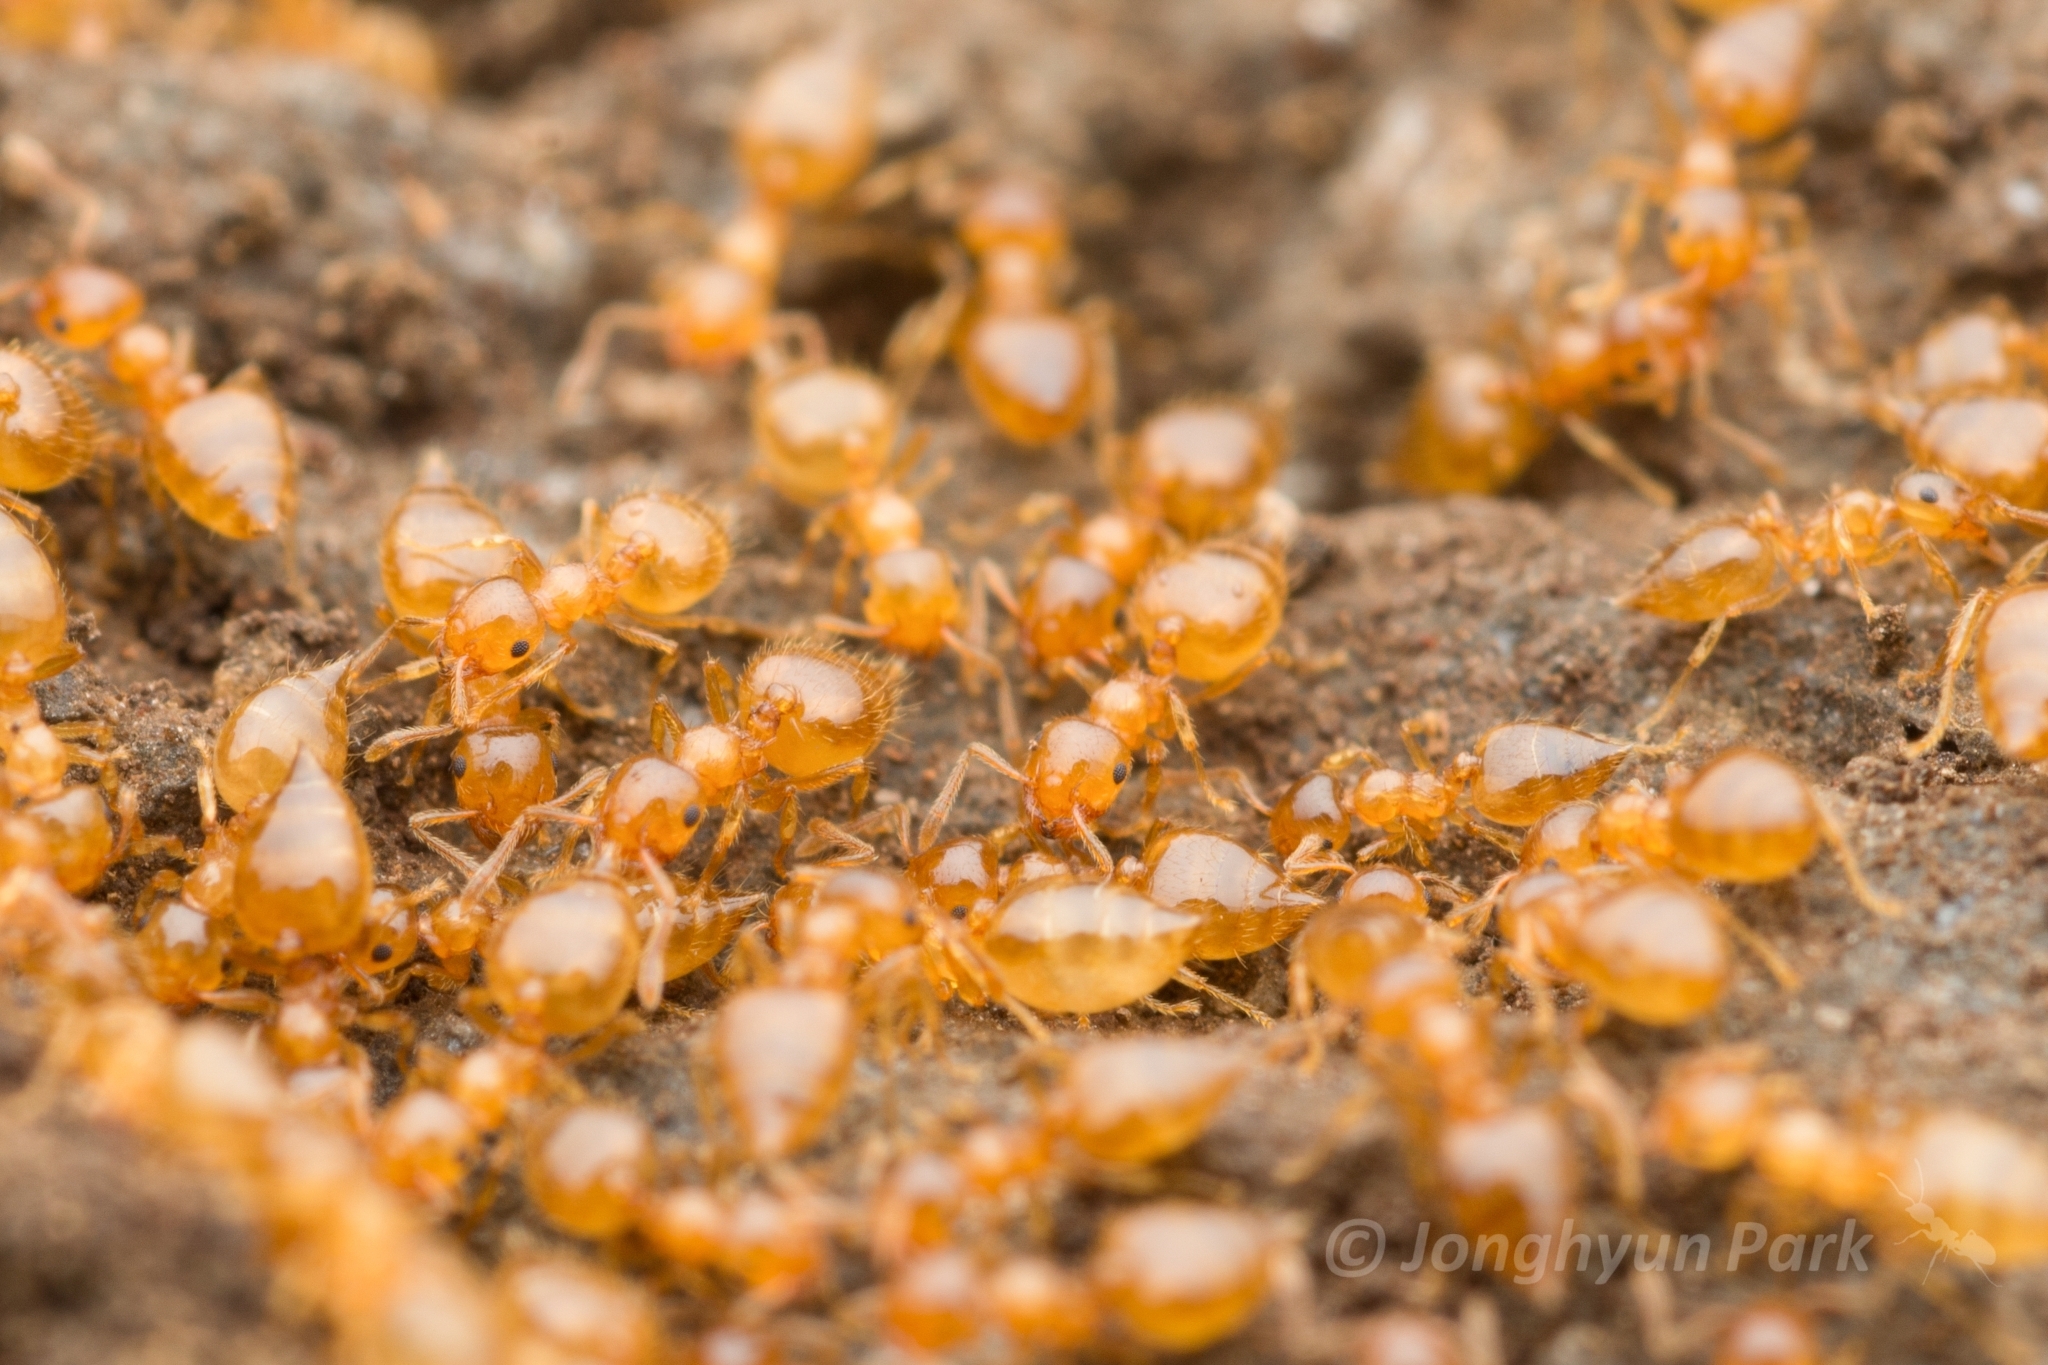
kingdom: Animalia
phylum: Arthropoda
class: Insecta
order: Hymenoptera
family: Formicidae
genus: Crematogaster
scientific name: Crematogaster osakensis
